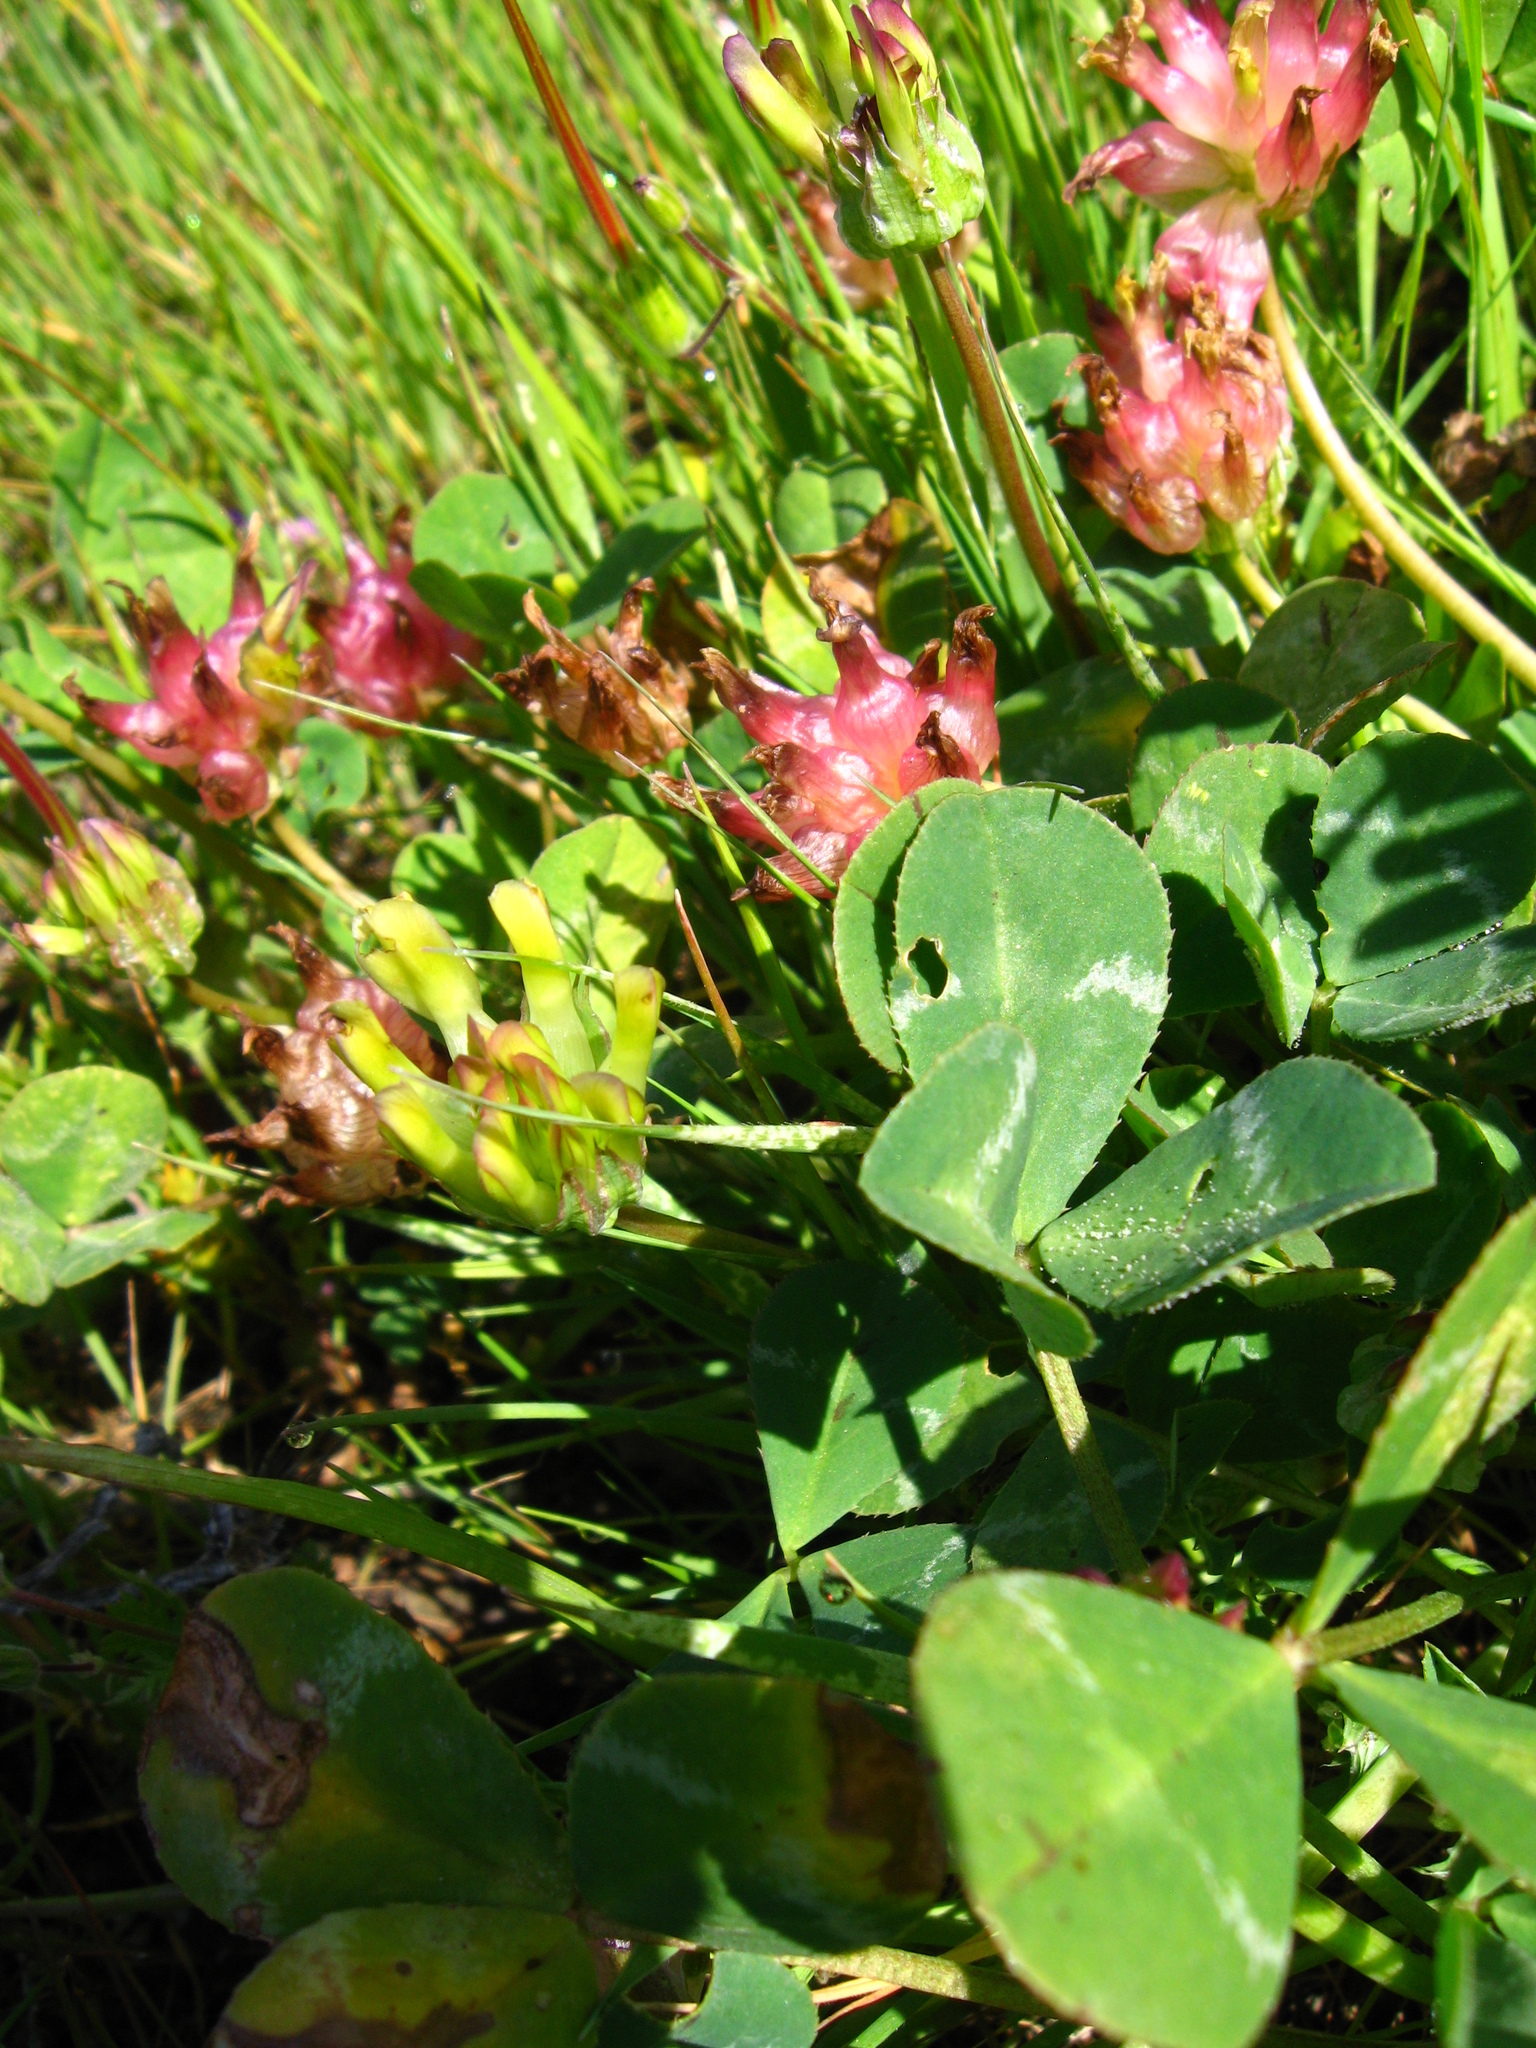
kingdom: Plantae
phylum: Tracheophyta
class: Magnoliopsida
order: Fabales
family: Fabaceae
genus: Trifolium
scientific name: Trifolium fucatum
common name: Puff clover
